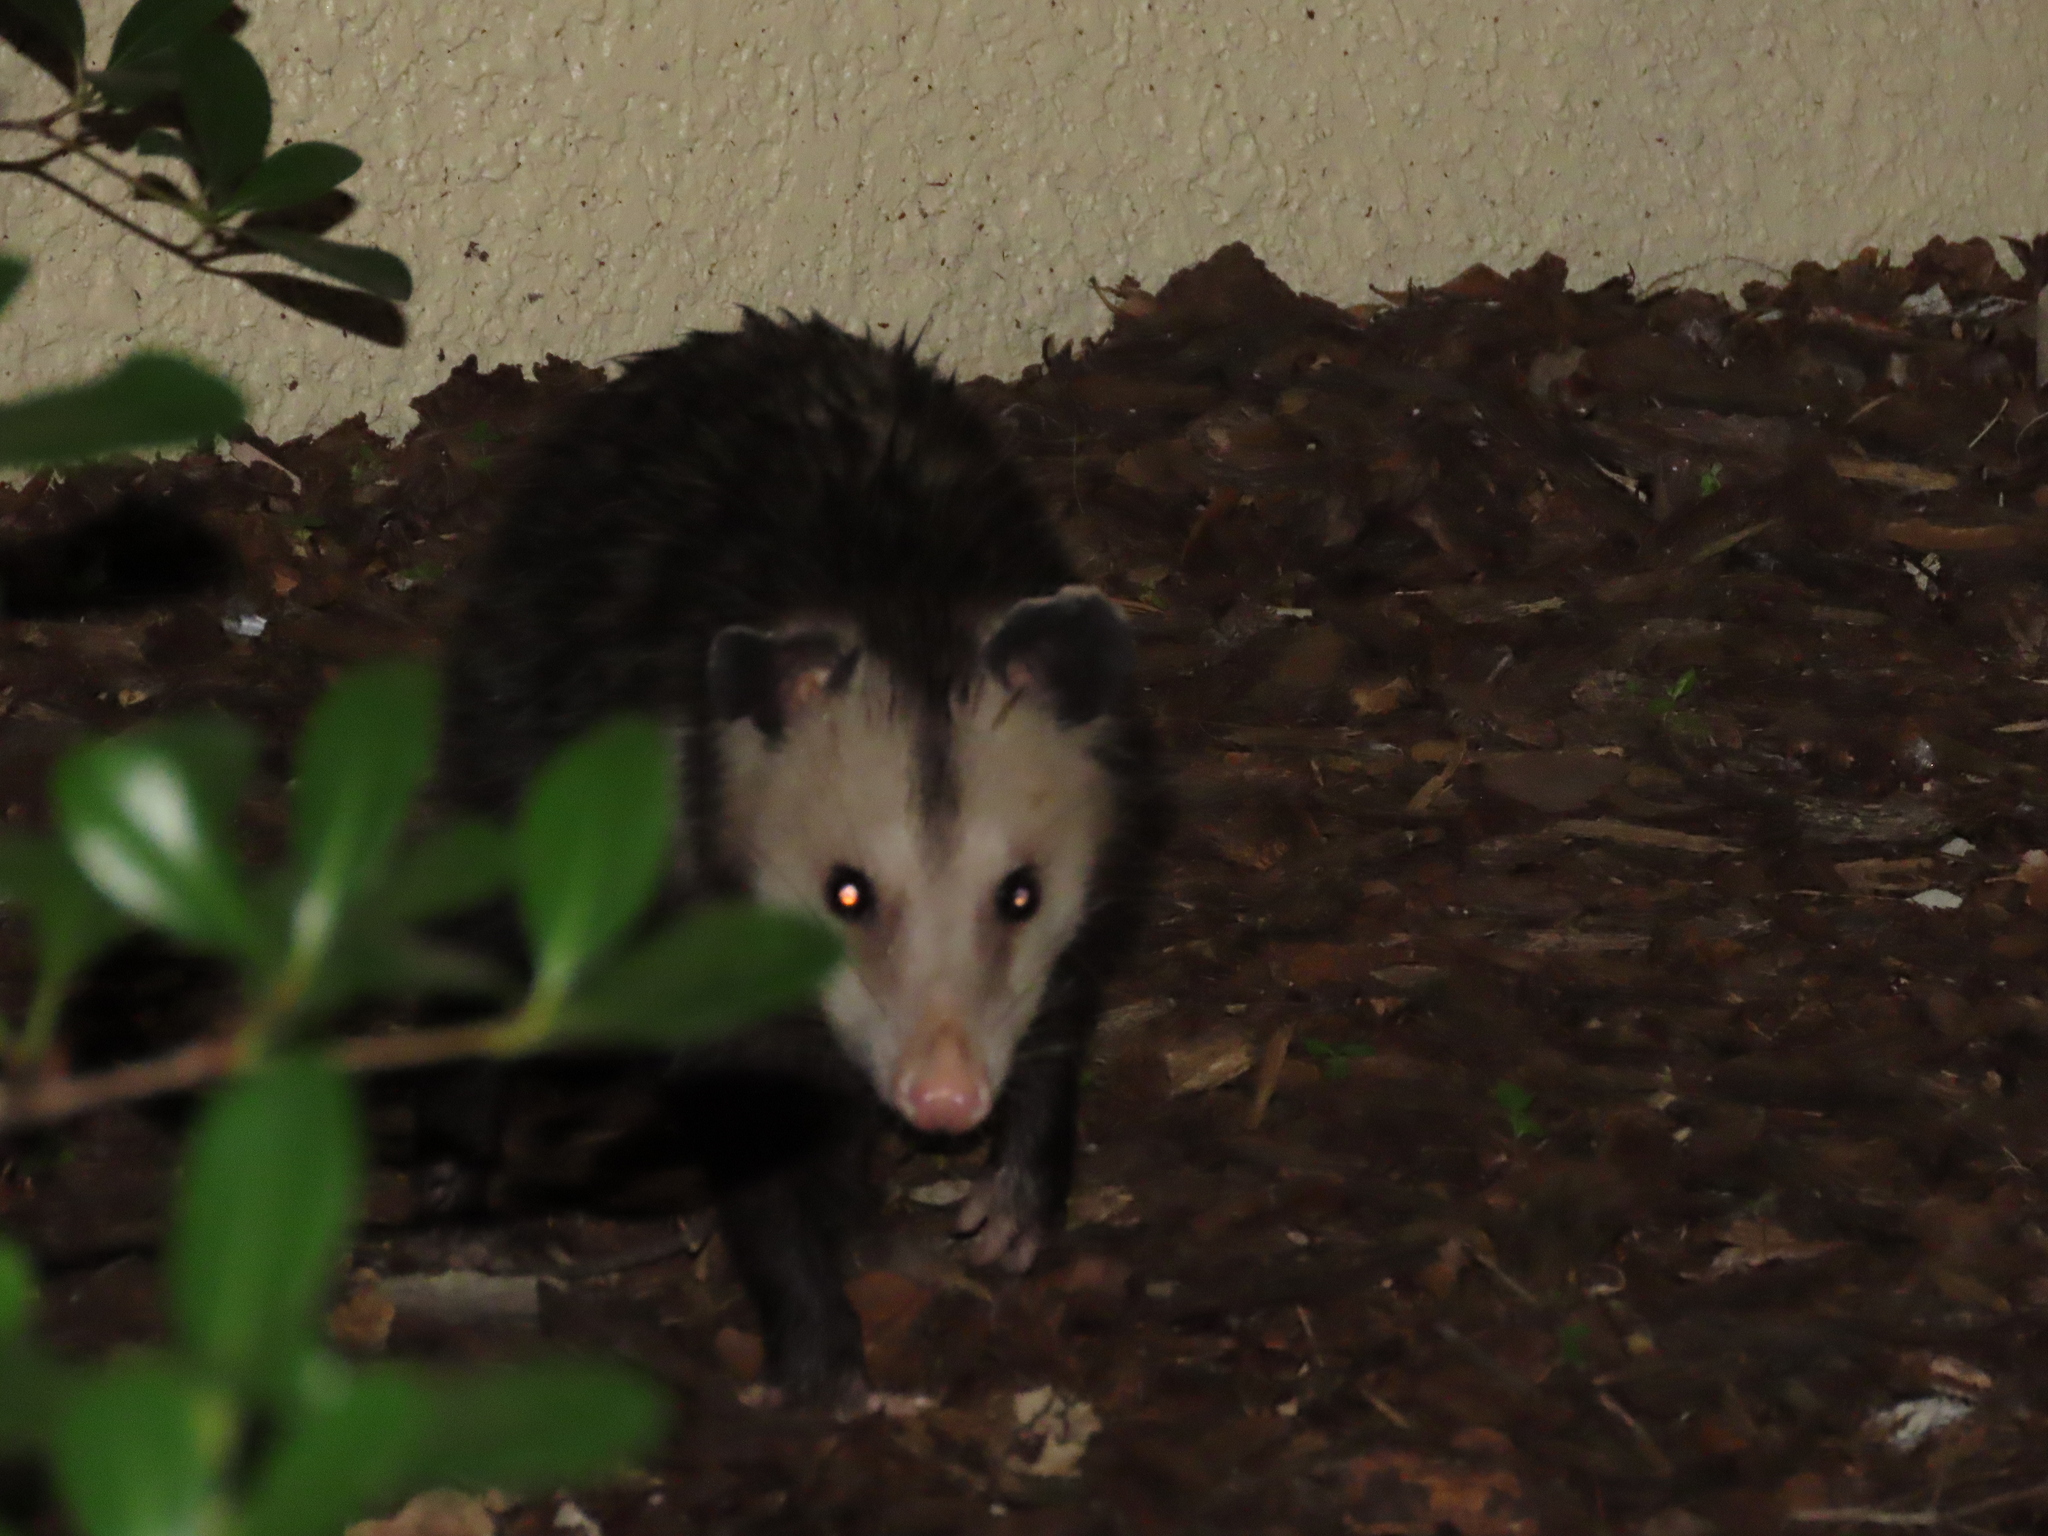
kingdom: Animalia
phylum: Chordata
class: Mammalia
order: Didelphimorphia
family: Didelphidae
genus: Didelphis
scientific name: Didelphis virginiana
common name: Virginia opossum
